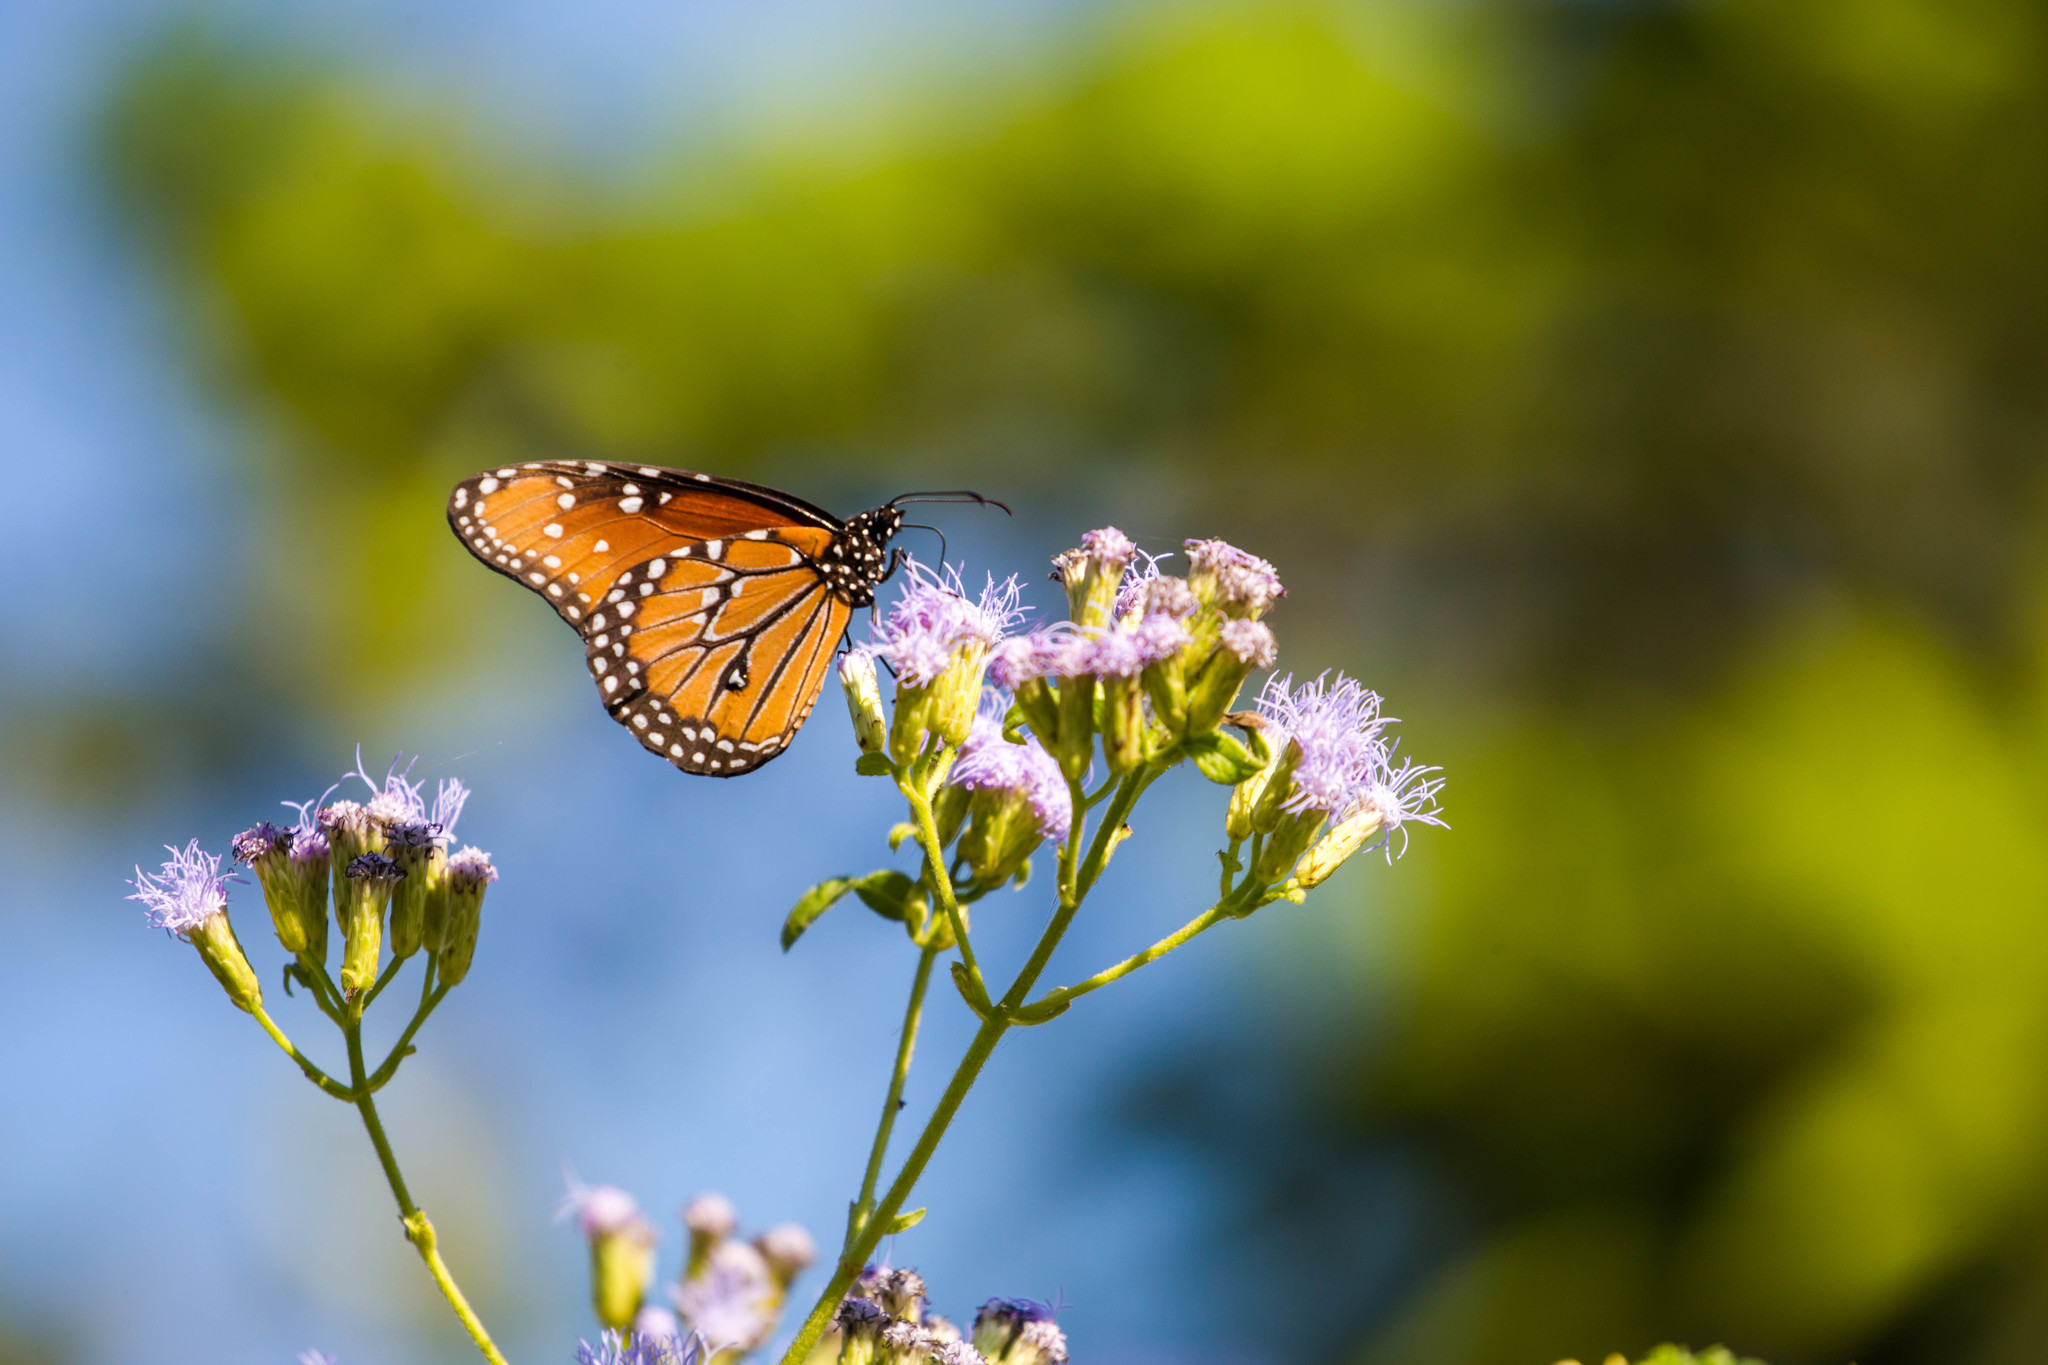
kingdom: Animalia
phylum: Arthropoda
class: Insecta
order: Lepidoptera
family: Nymphalidae
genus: Danaus
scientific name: Danaus gilippus
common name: Queen
